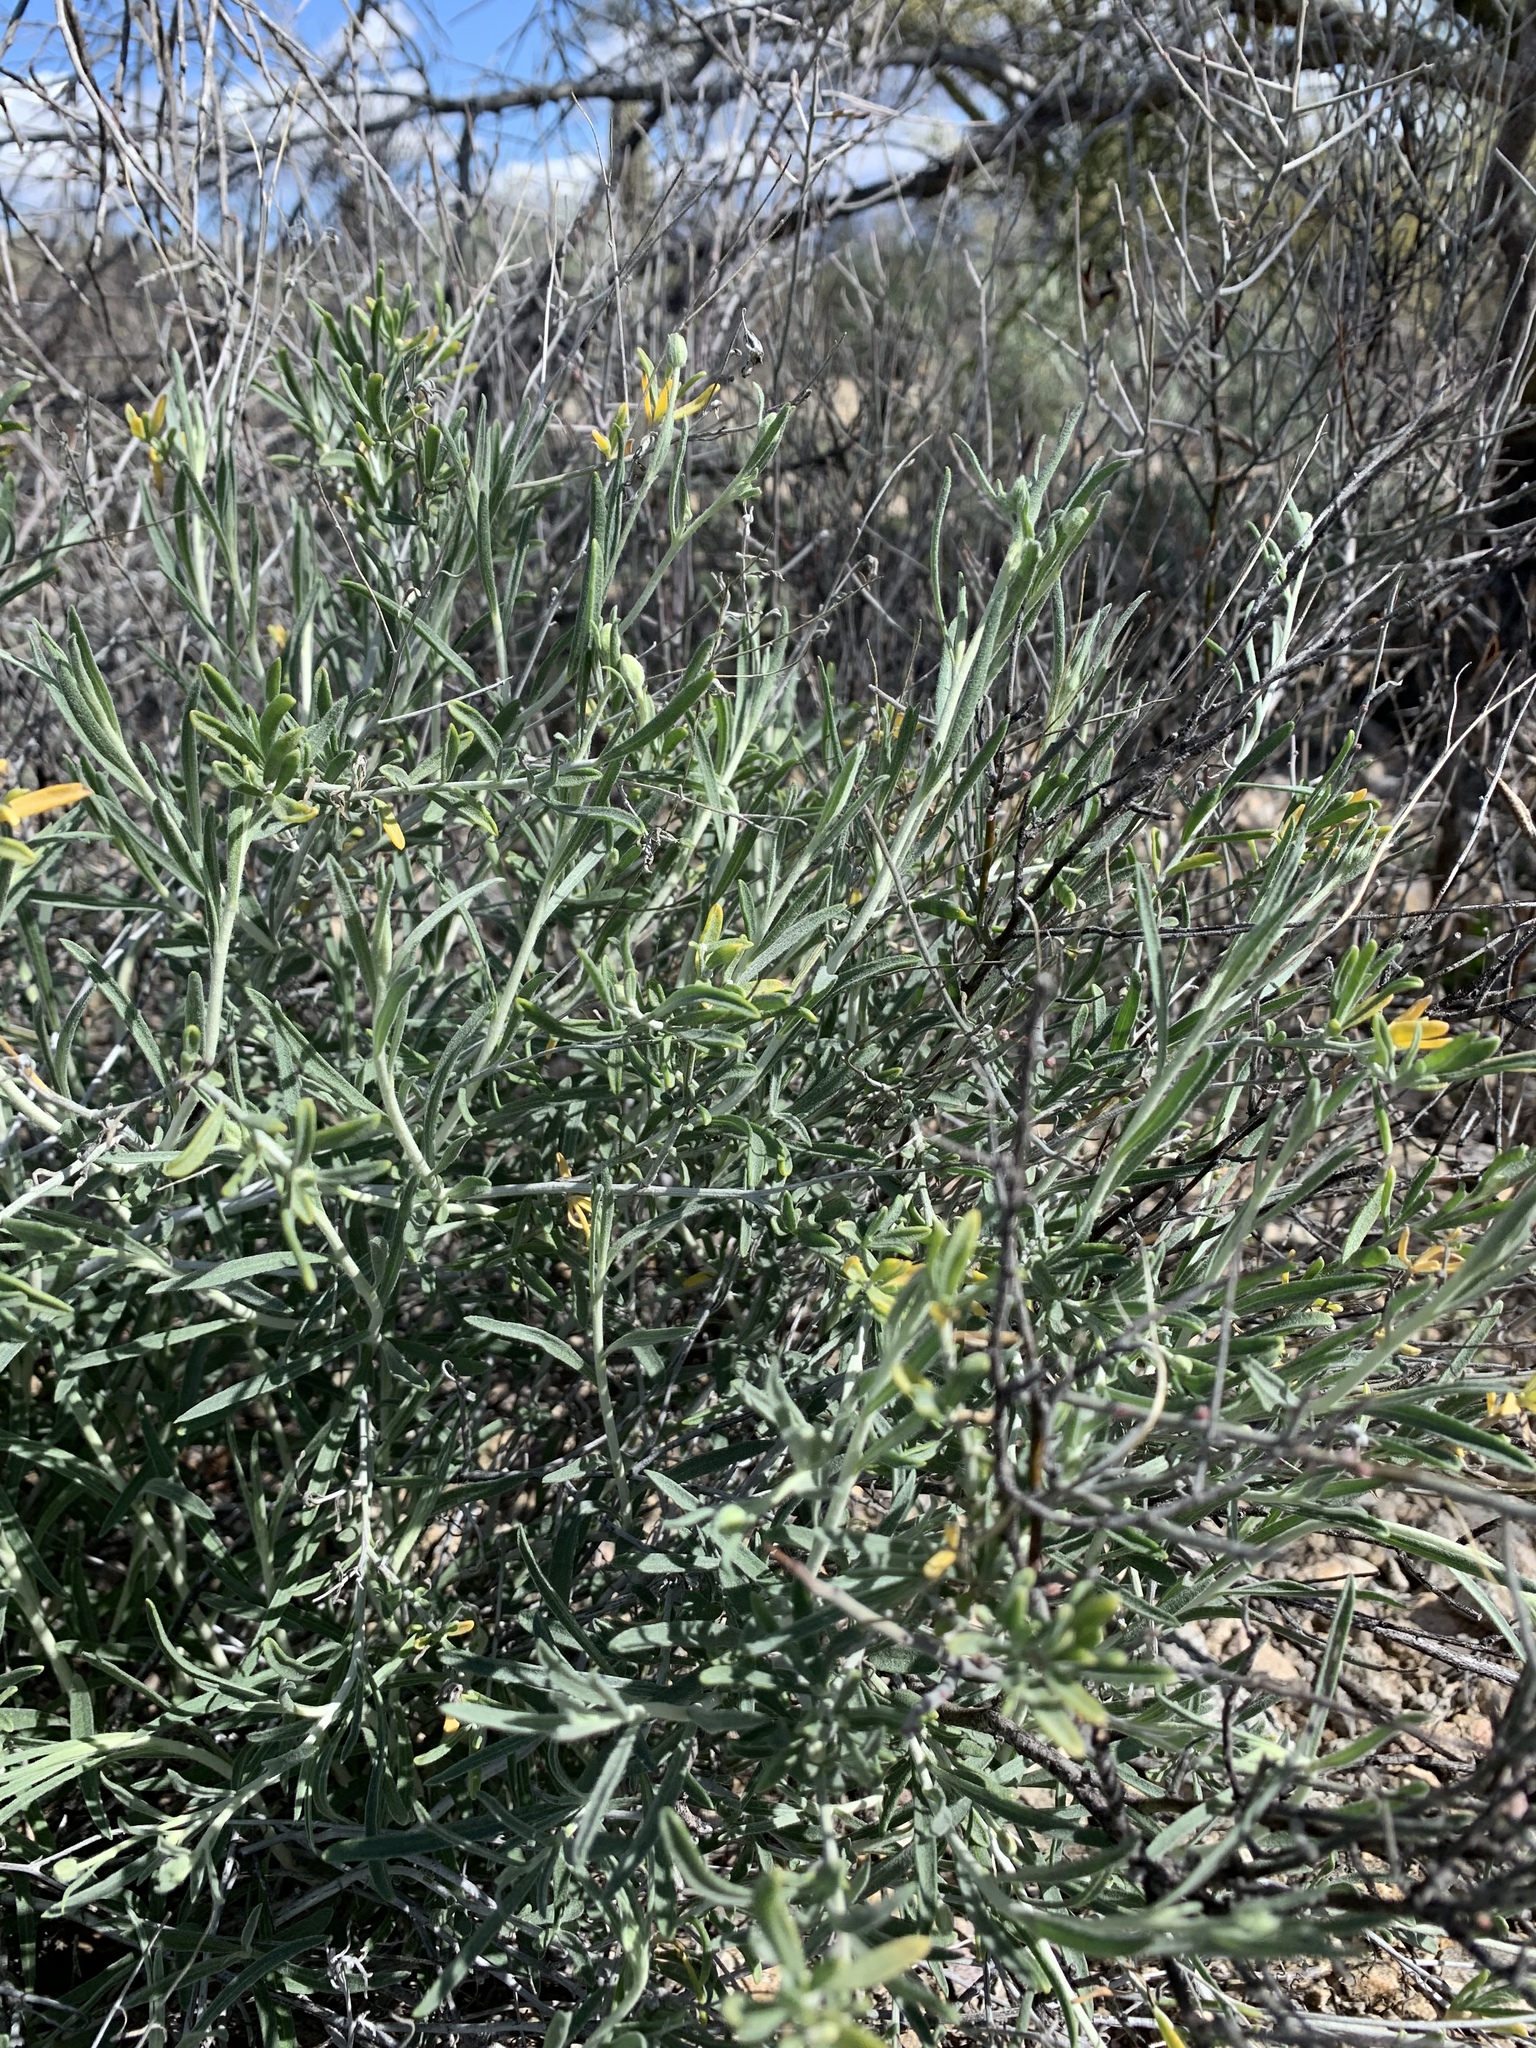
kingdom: Plantae
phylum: Tracheophyta
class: Magnoliopsida
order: Asterales
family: Asteraceae
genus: Psilostrophe
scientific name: Psilostrophe cooperi
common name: White-stem paper-flower
